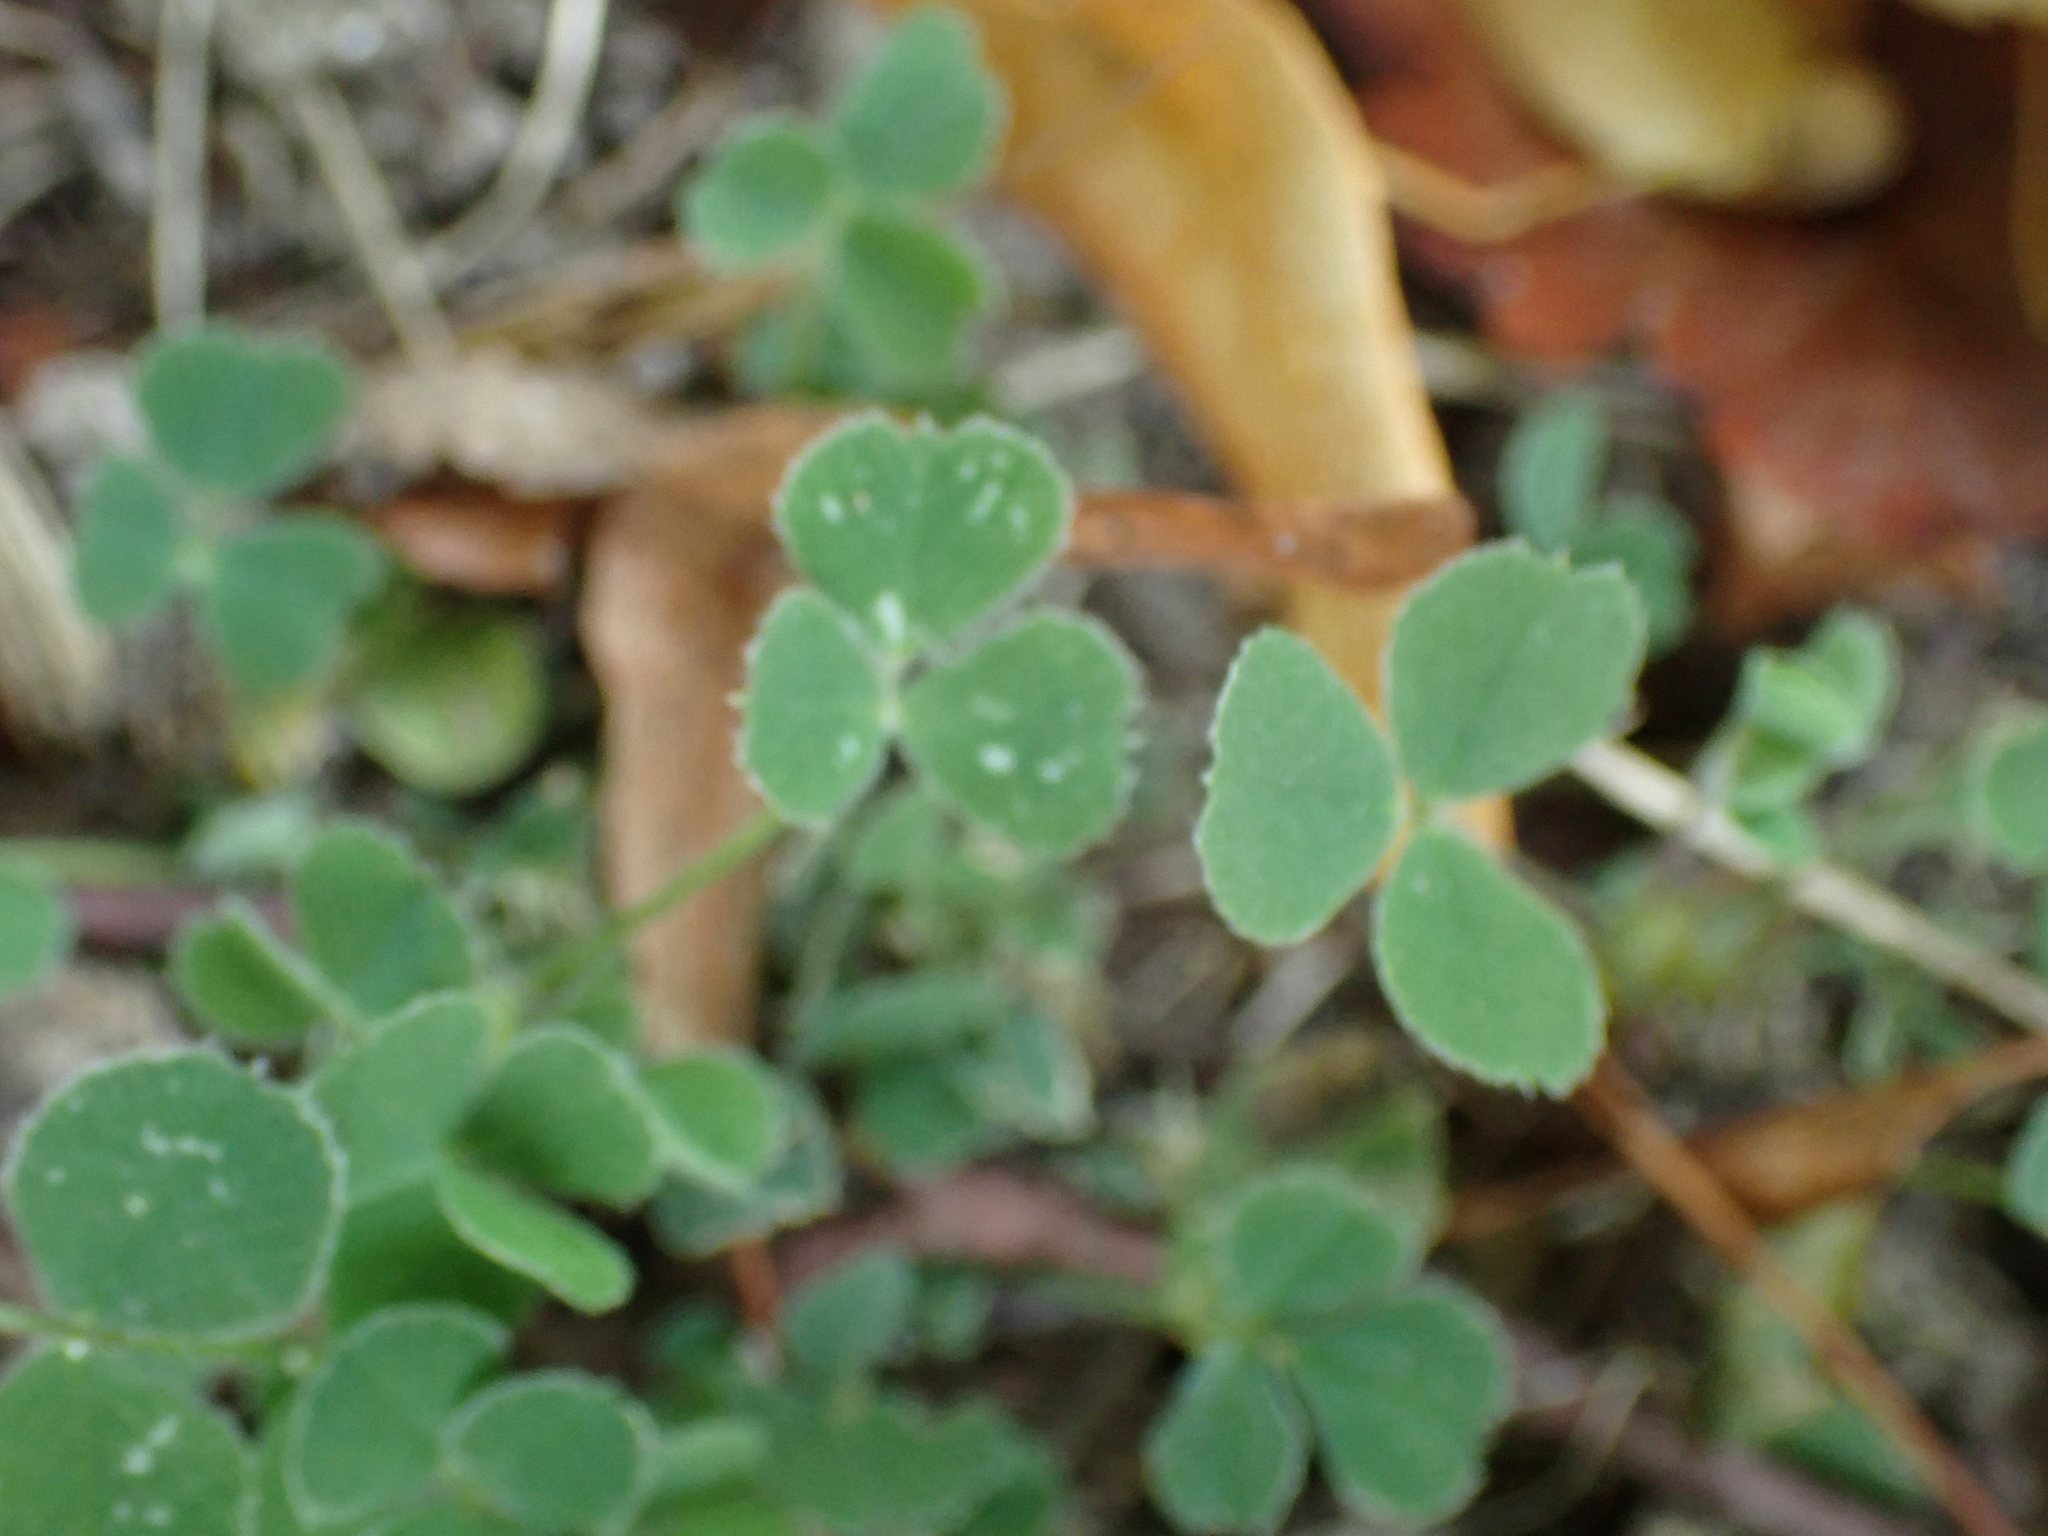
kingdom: Plantae
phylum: Tracheophyta
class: Magnoliopsida
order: Fabales
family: Fabaceae
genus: Medicago
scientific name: Medicago lupulina
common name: Black medick
